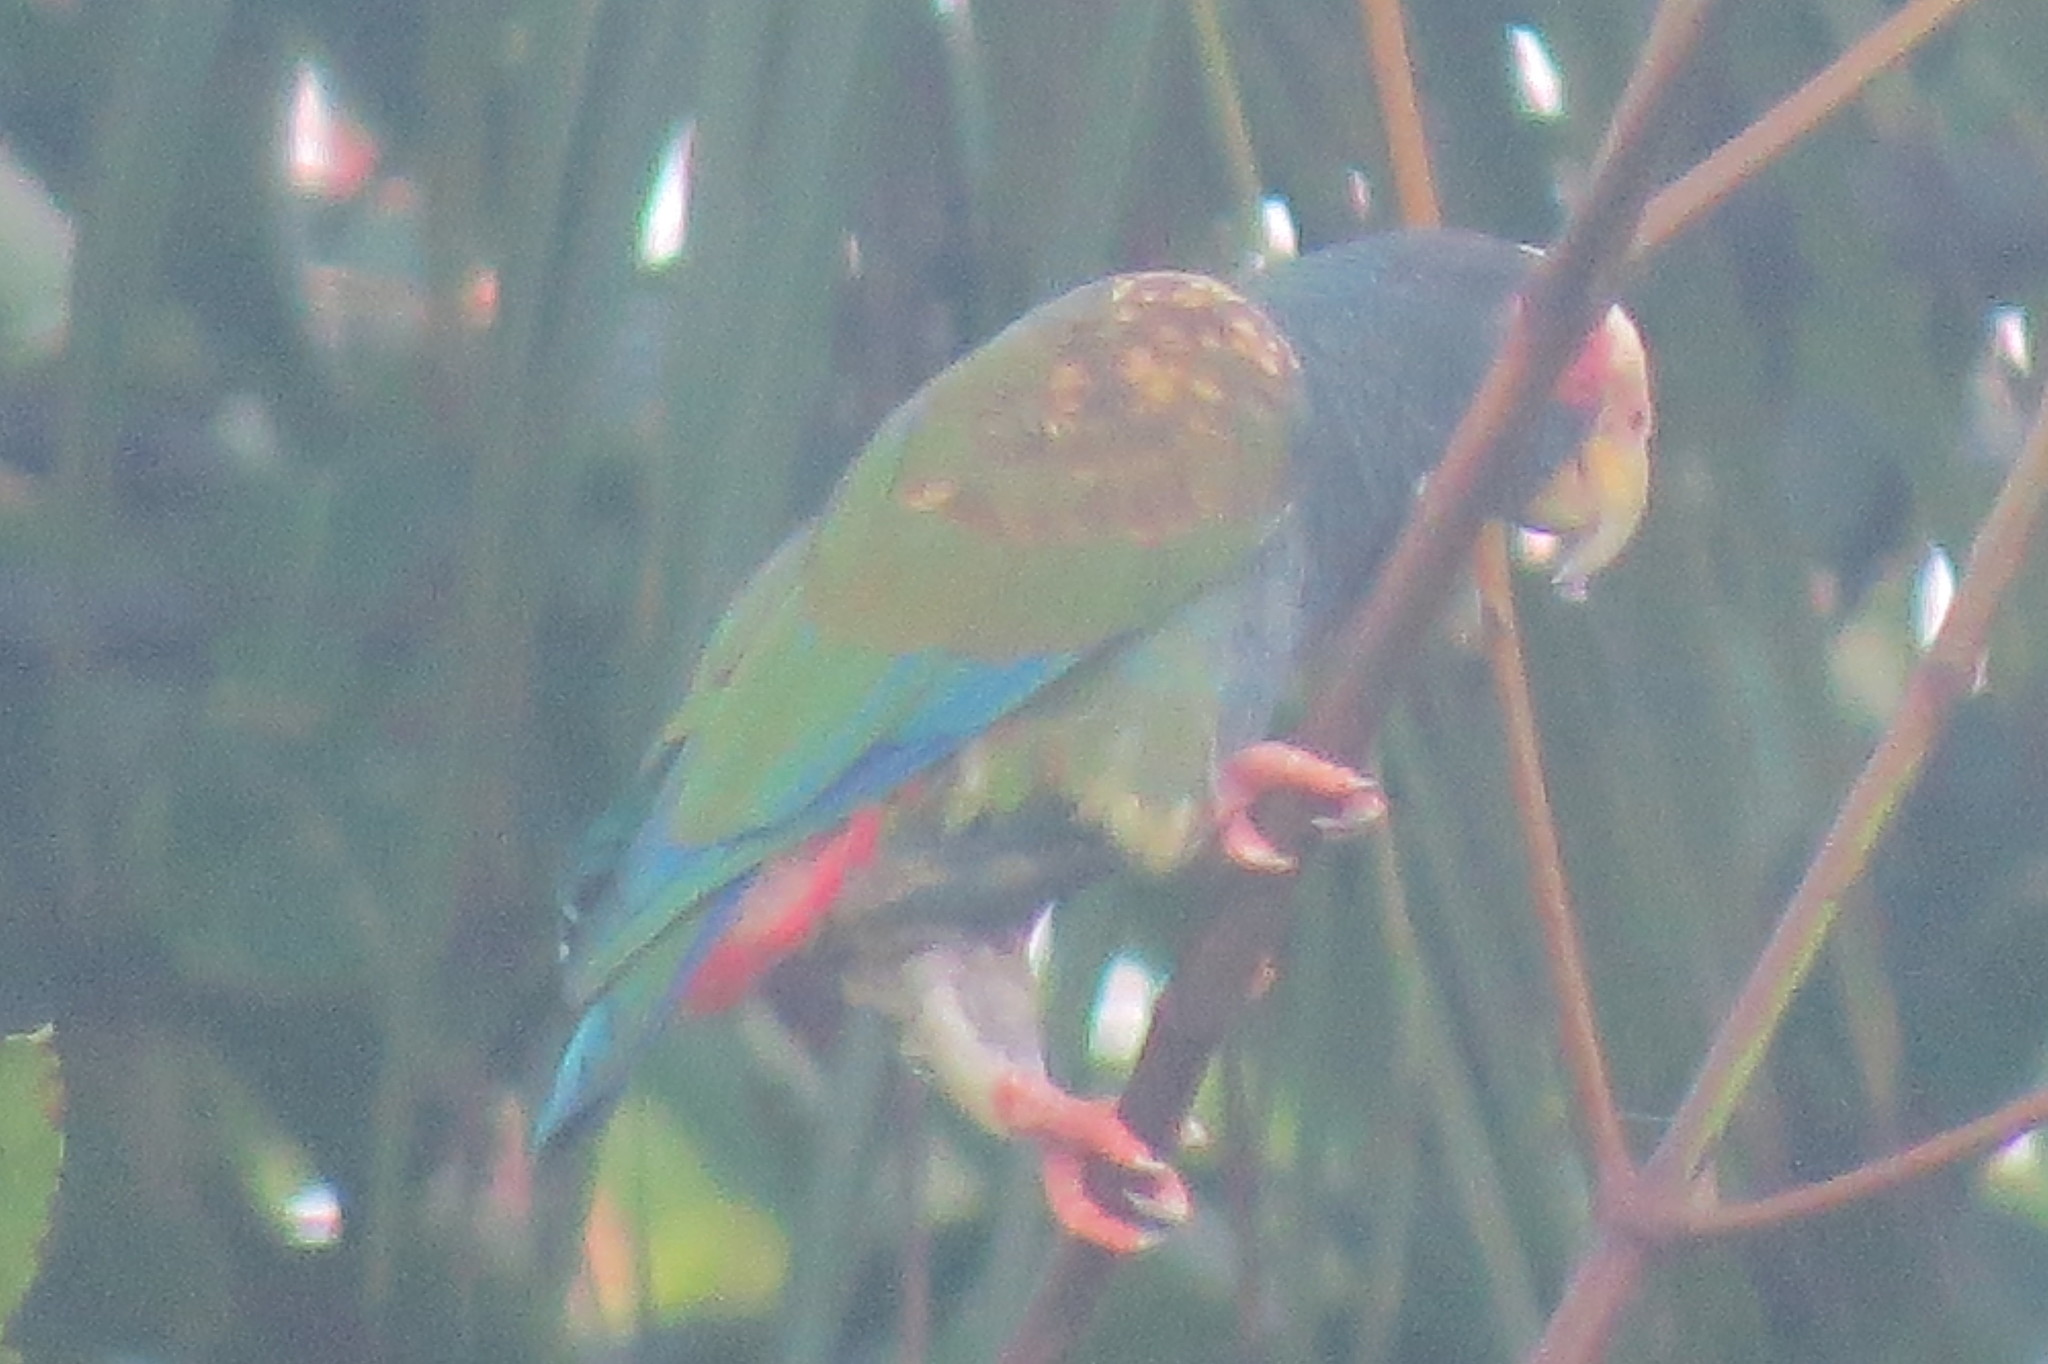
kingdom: Animalia
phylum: Chordata
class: Aves
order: Psittaciformes
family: Psittacidae
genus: Pionus
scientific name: Pionus senilis
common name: White-crowned parrot
